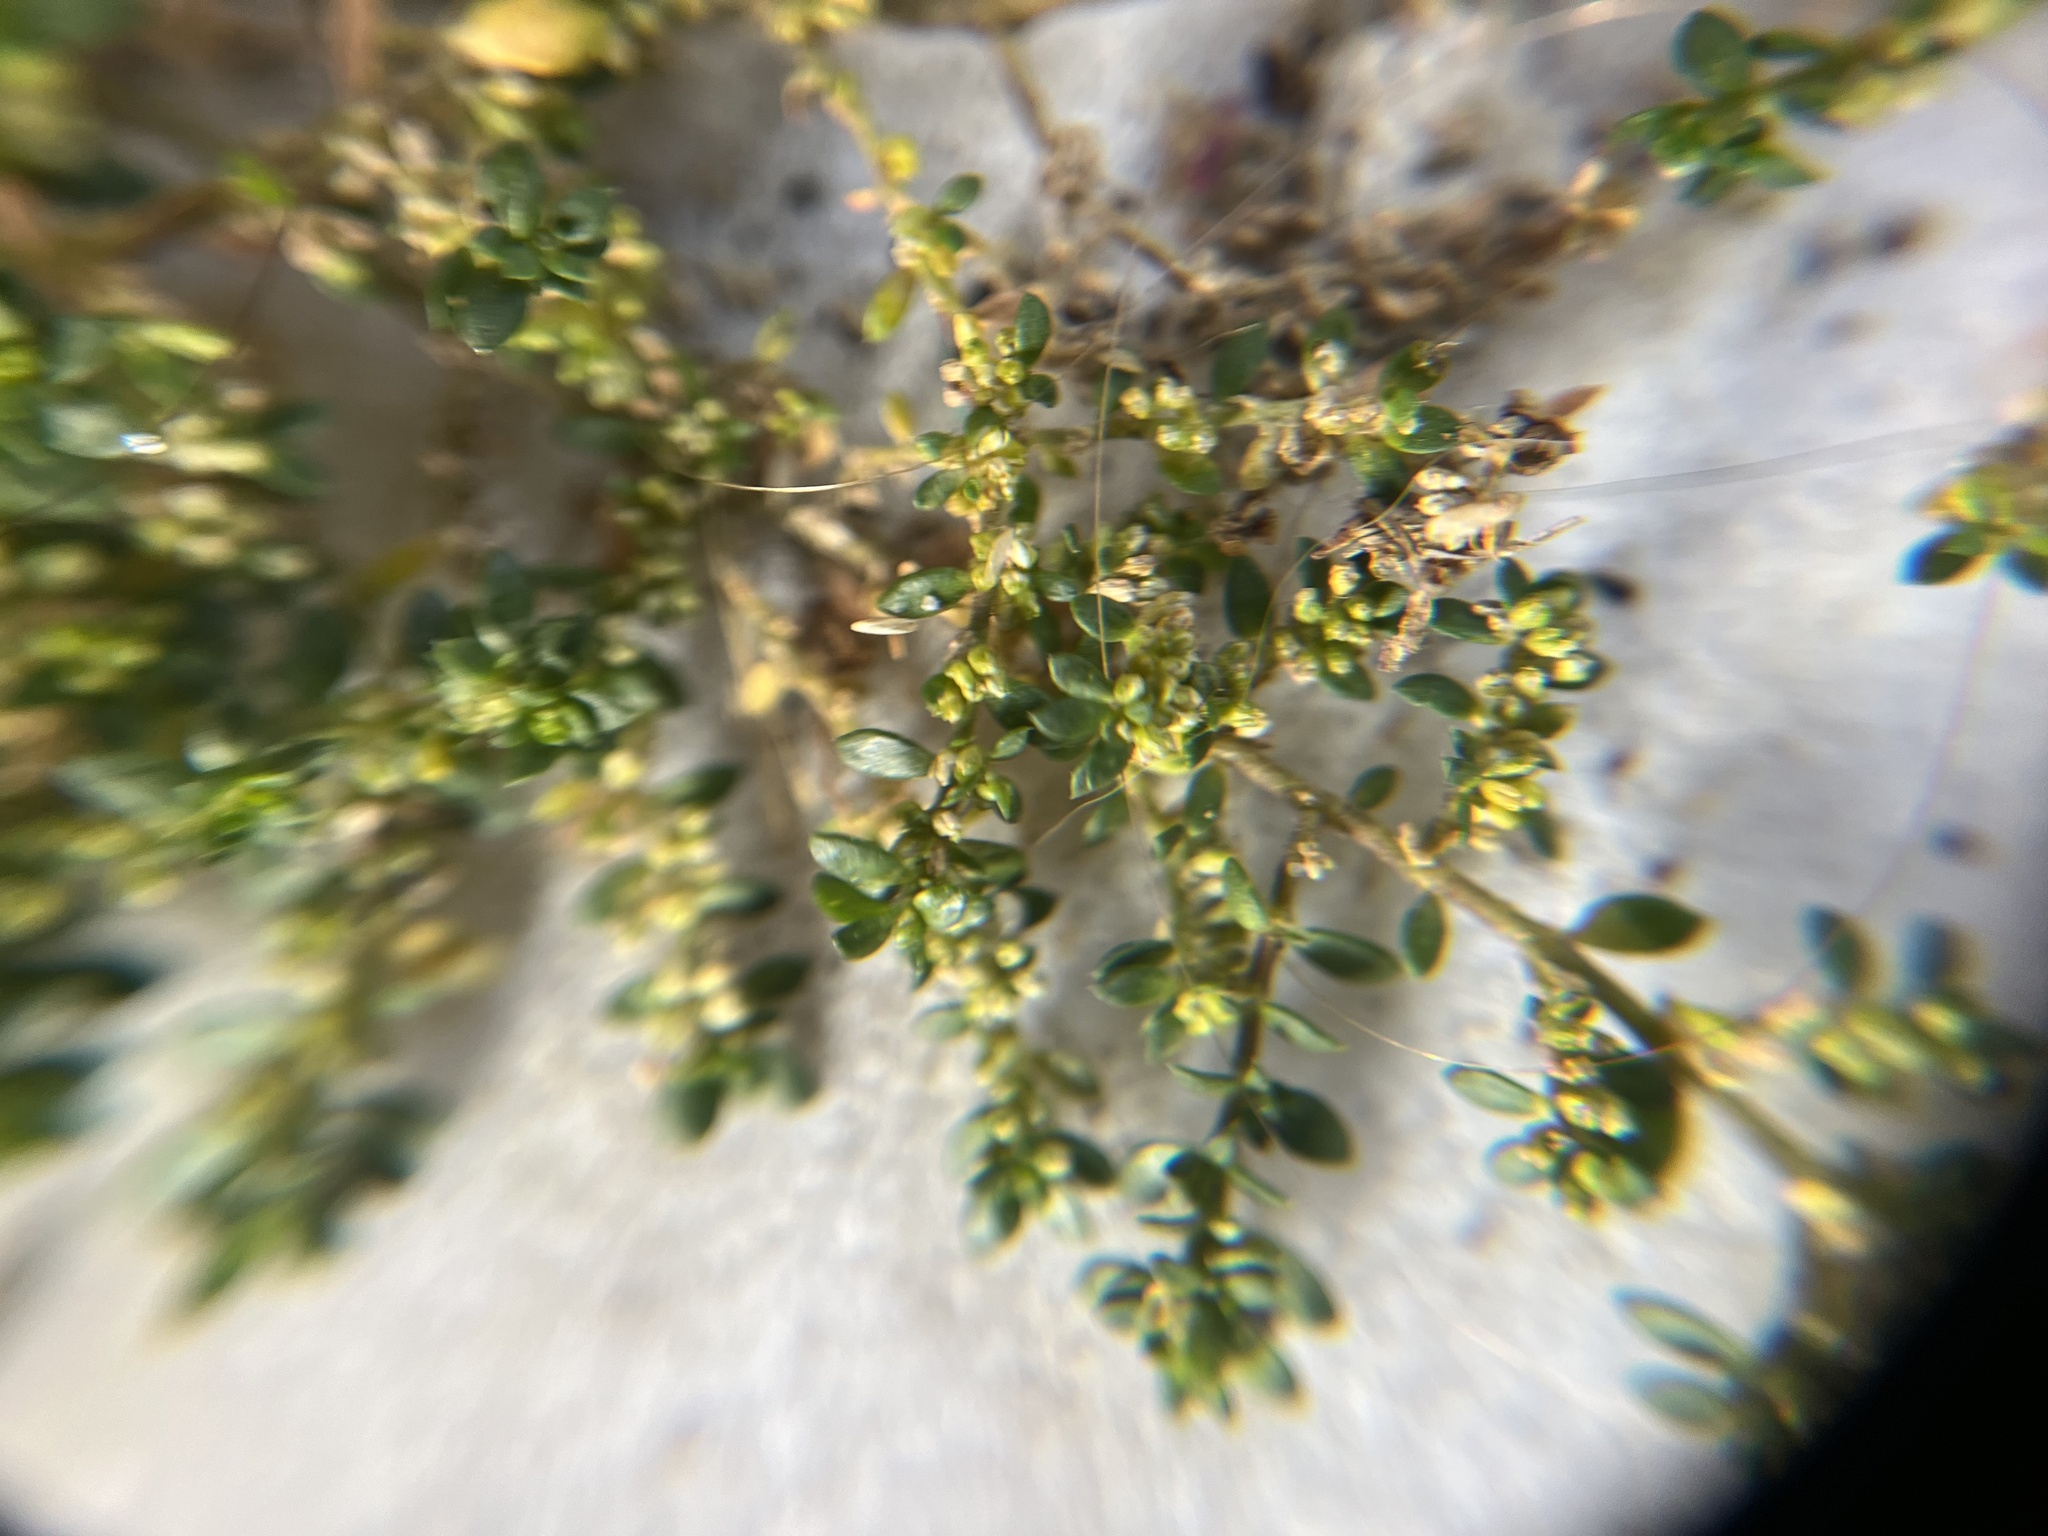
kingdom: Plantae
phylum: Tracheophyta
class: Magnoliopsida
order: Caryophyllales
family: Caryophyllaceae
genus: Herniaria
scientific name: Herniaria glabra
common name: Smooth rupturewort
